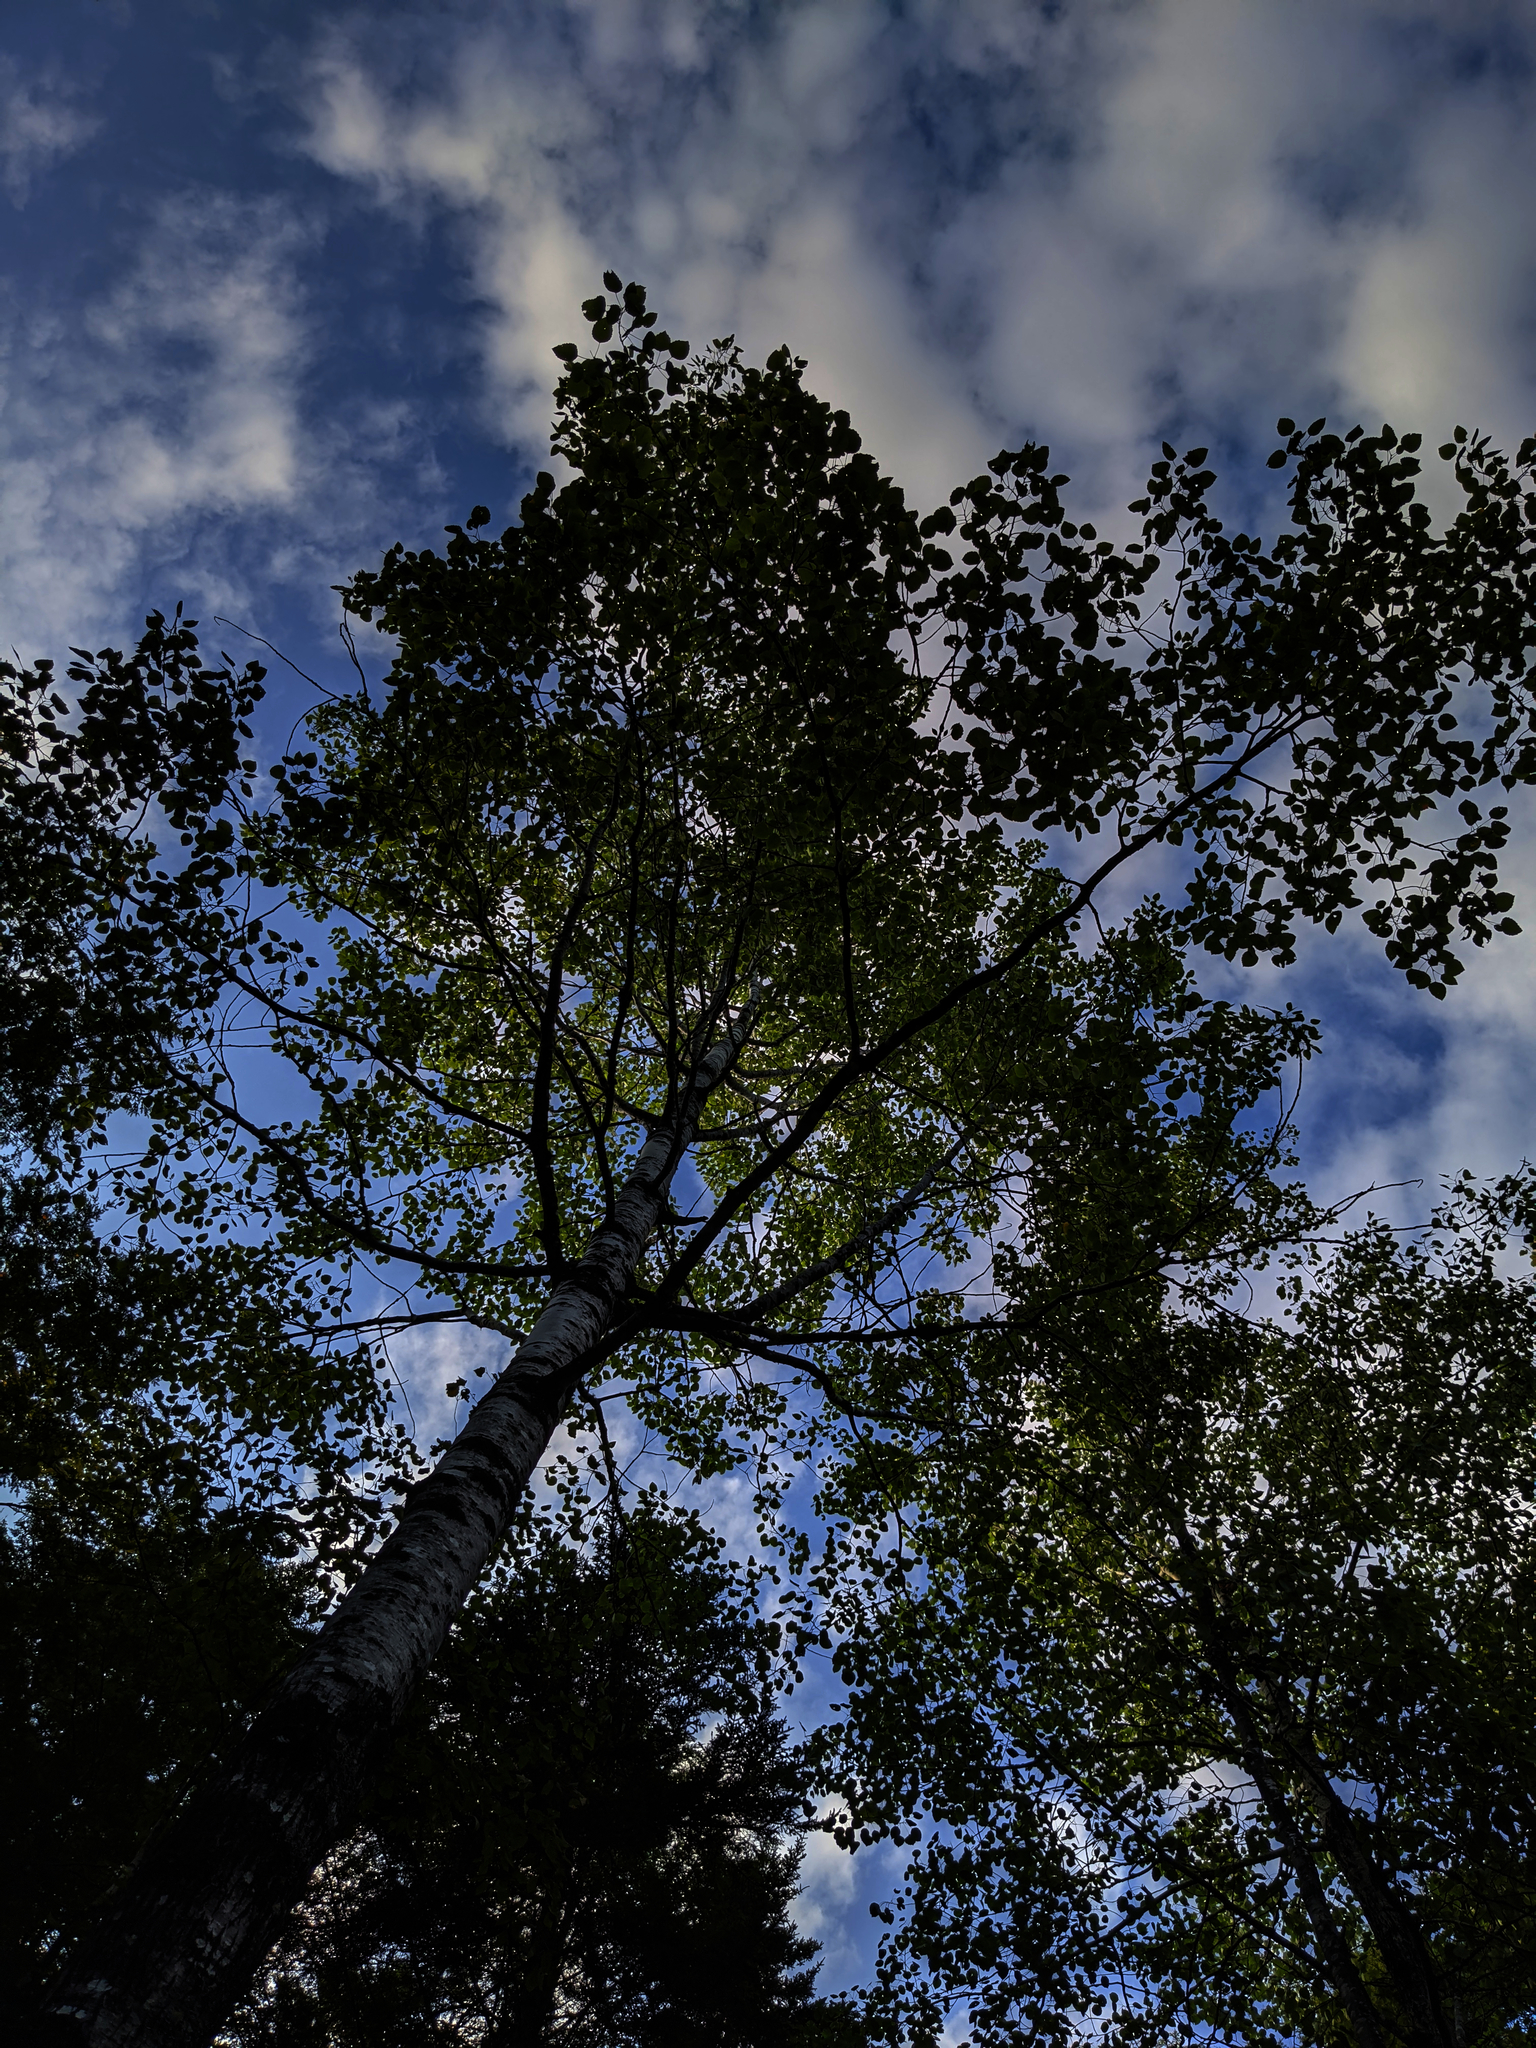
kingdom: Plantae
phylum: Tracheophyta
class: Magnoliopsida
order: Malpighiales
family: Salicaceae
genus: Populus
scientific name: Populus grandidentata
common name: Bigtooth aspen
